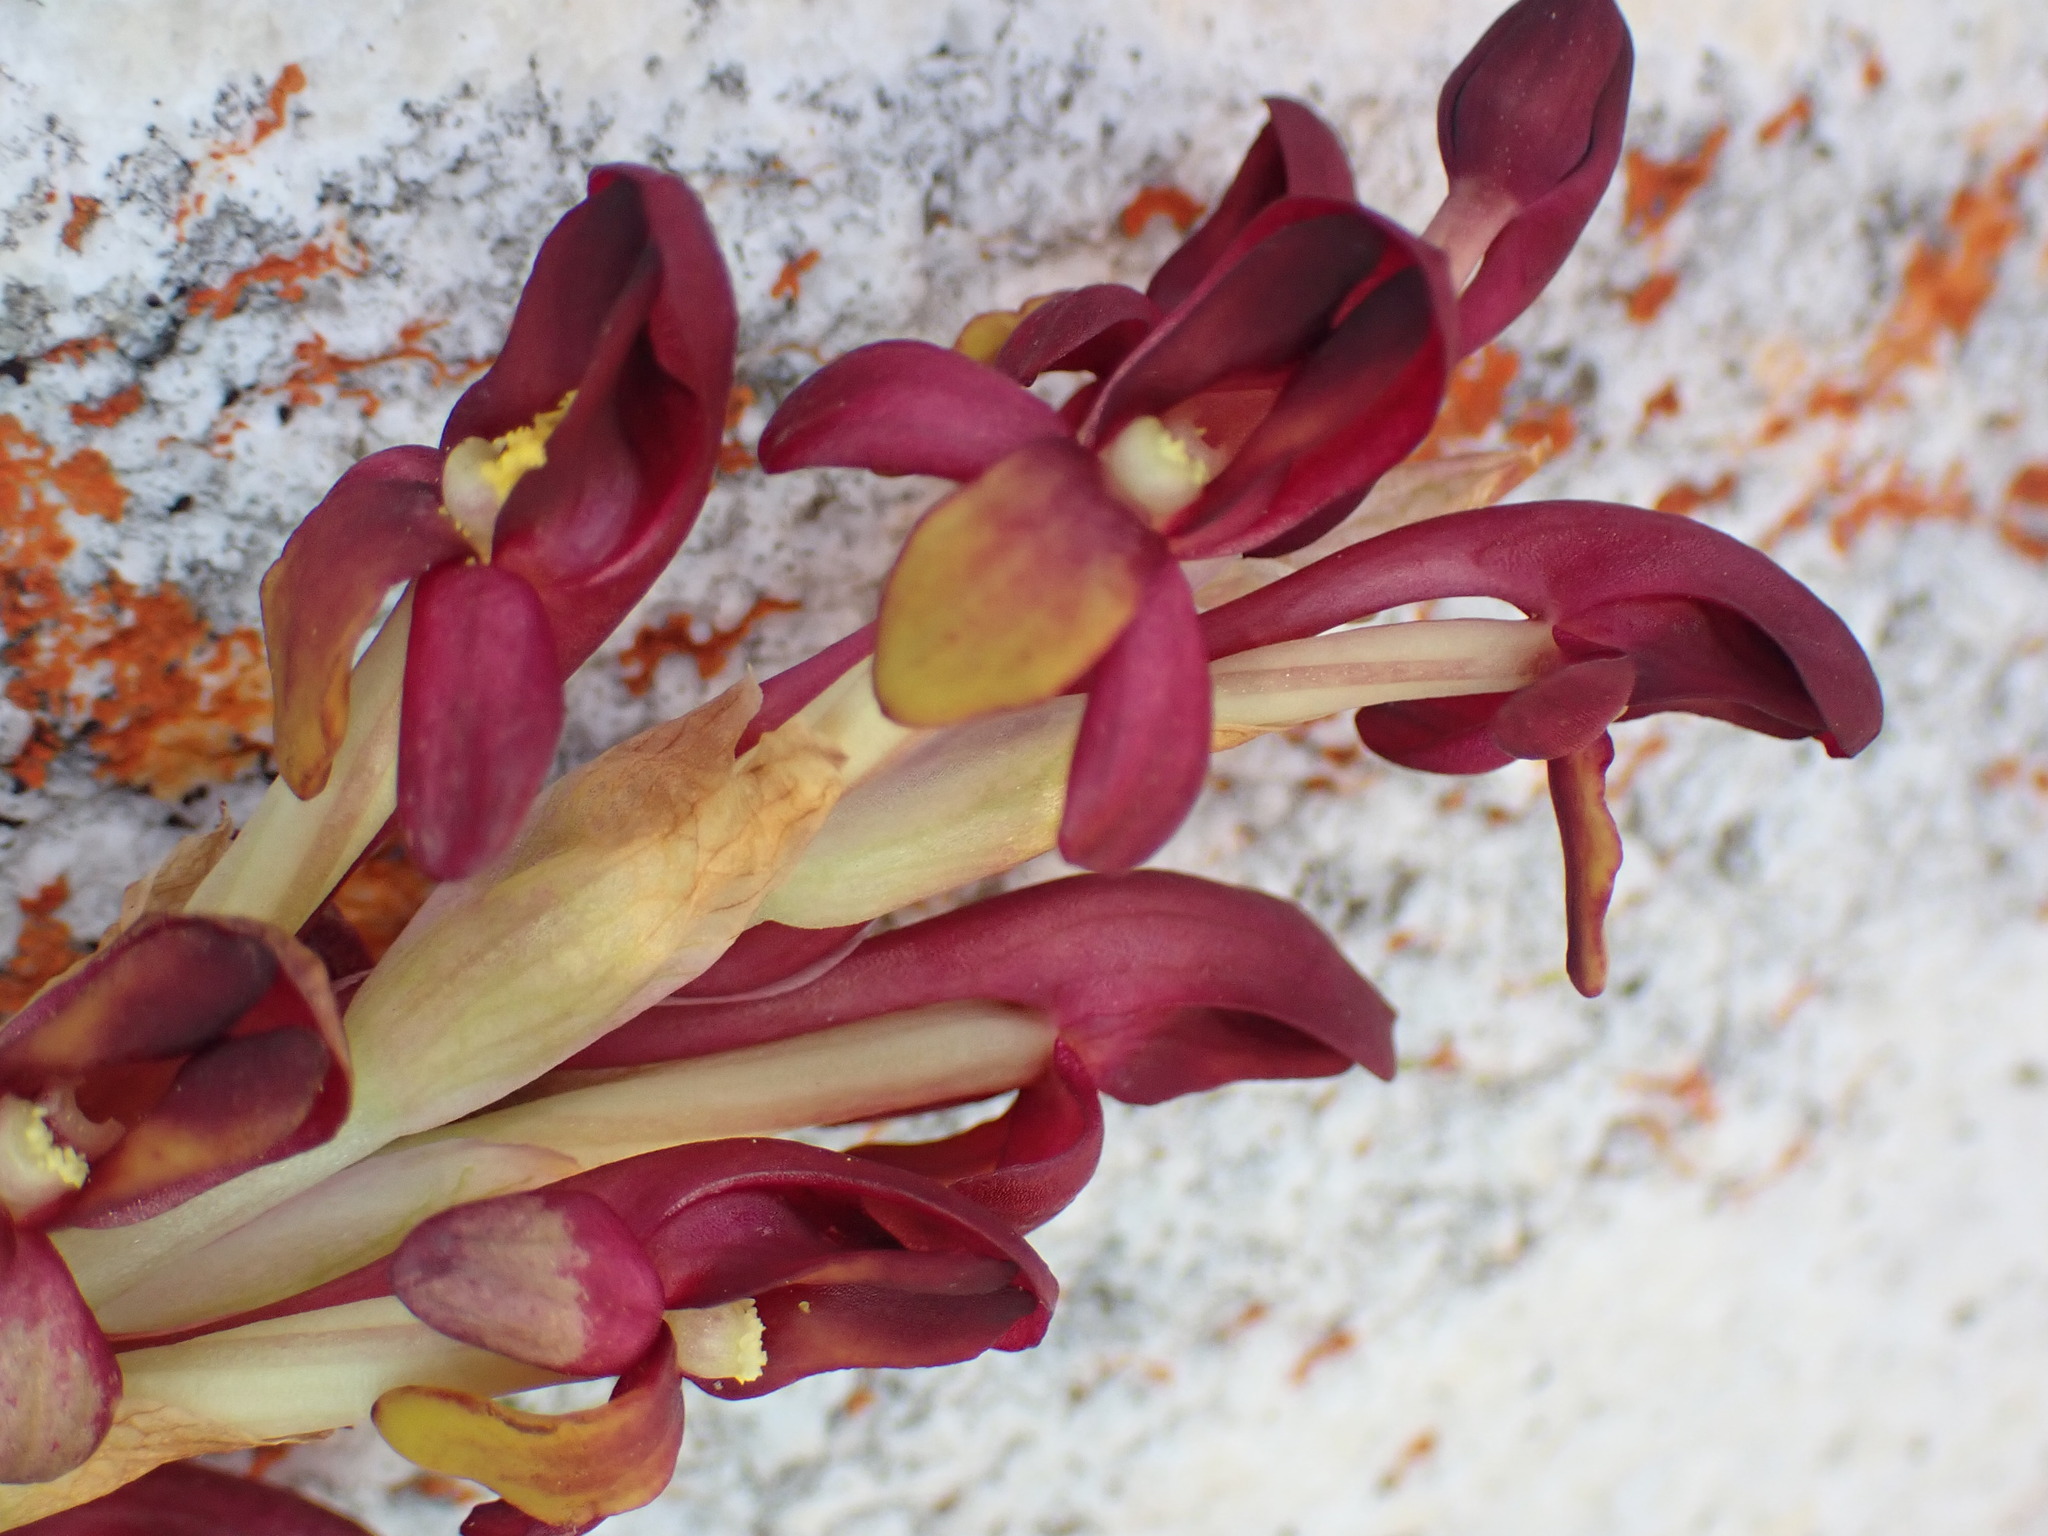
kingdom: Plantae
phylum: Tracheophyta
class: Liliopsida
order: Asparagales
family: Orchidaceae
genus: Disa
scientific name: Disa comosa
